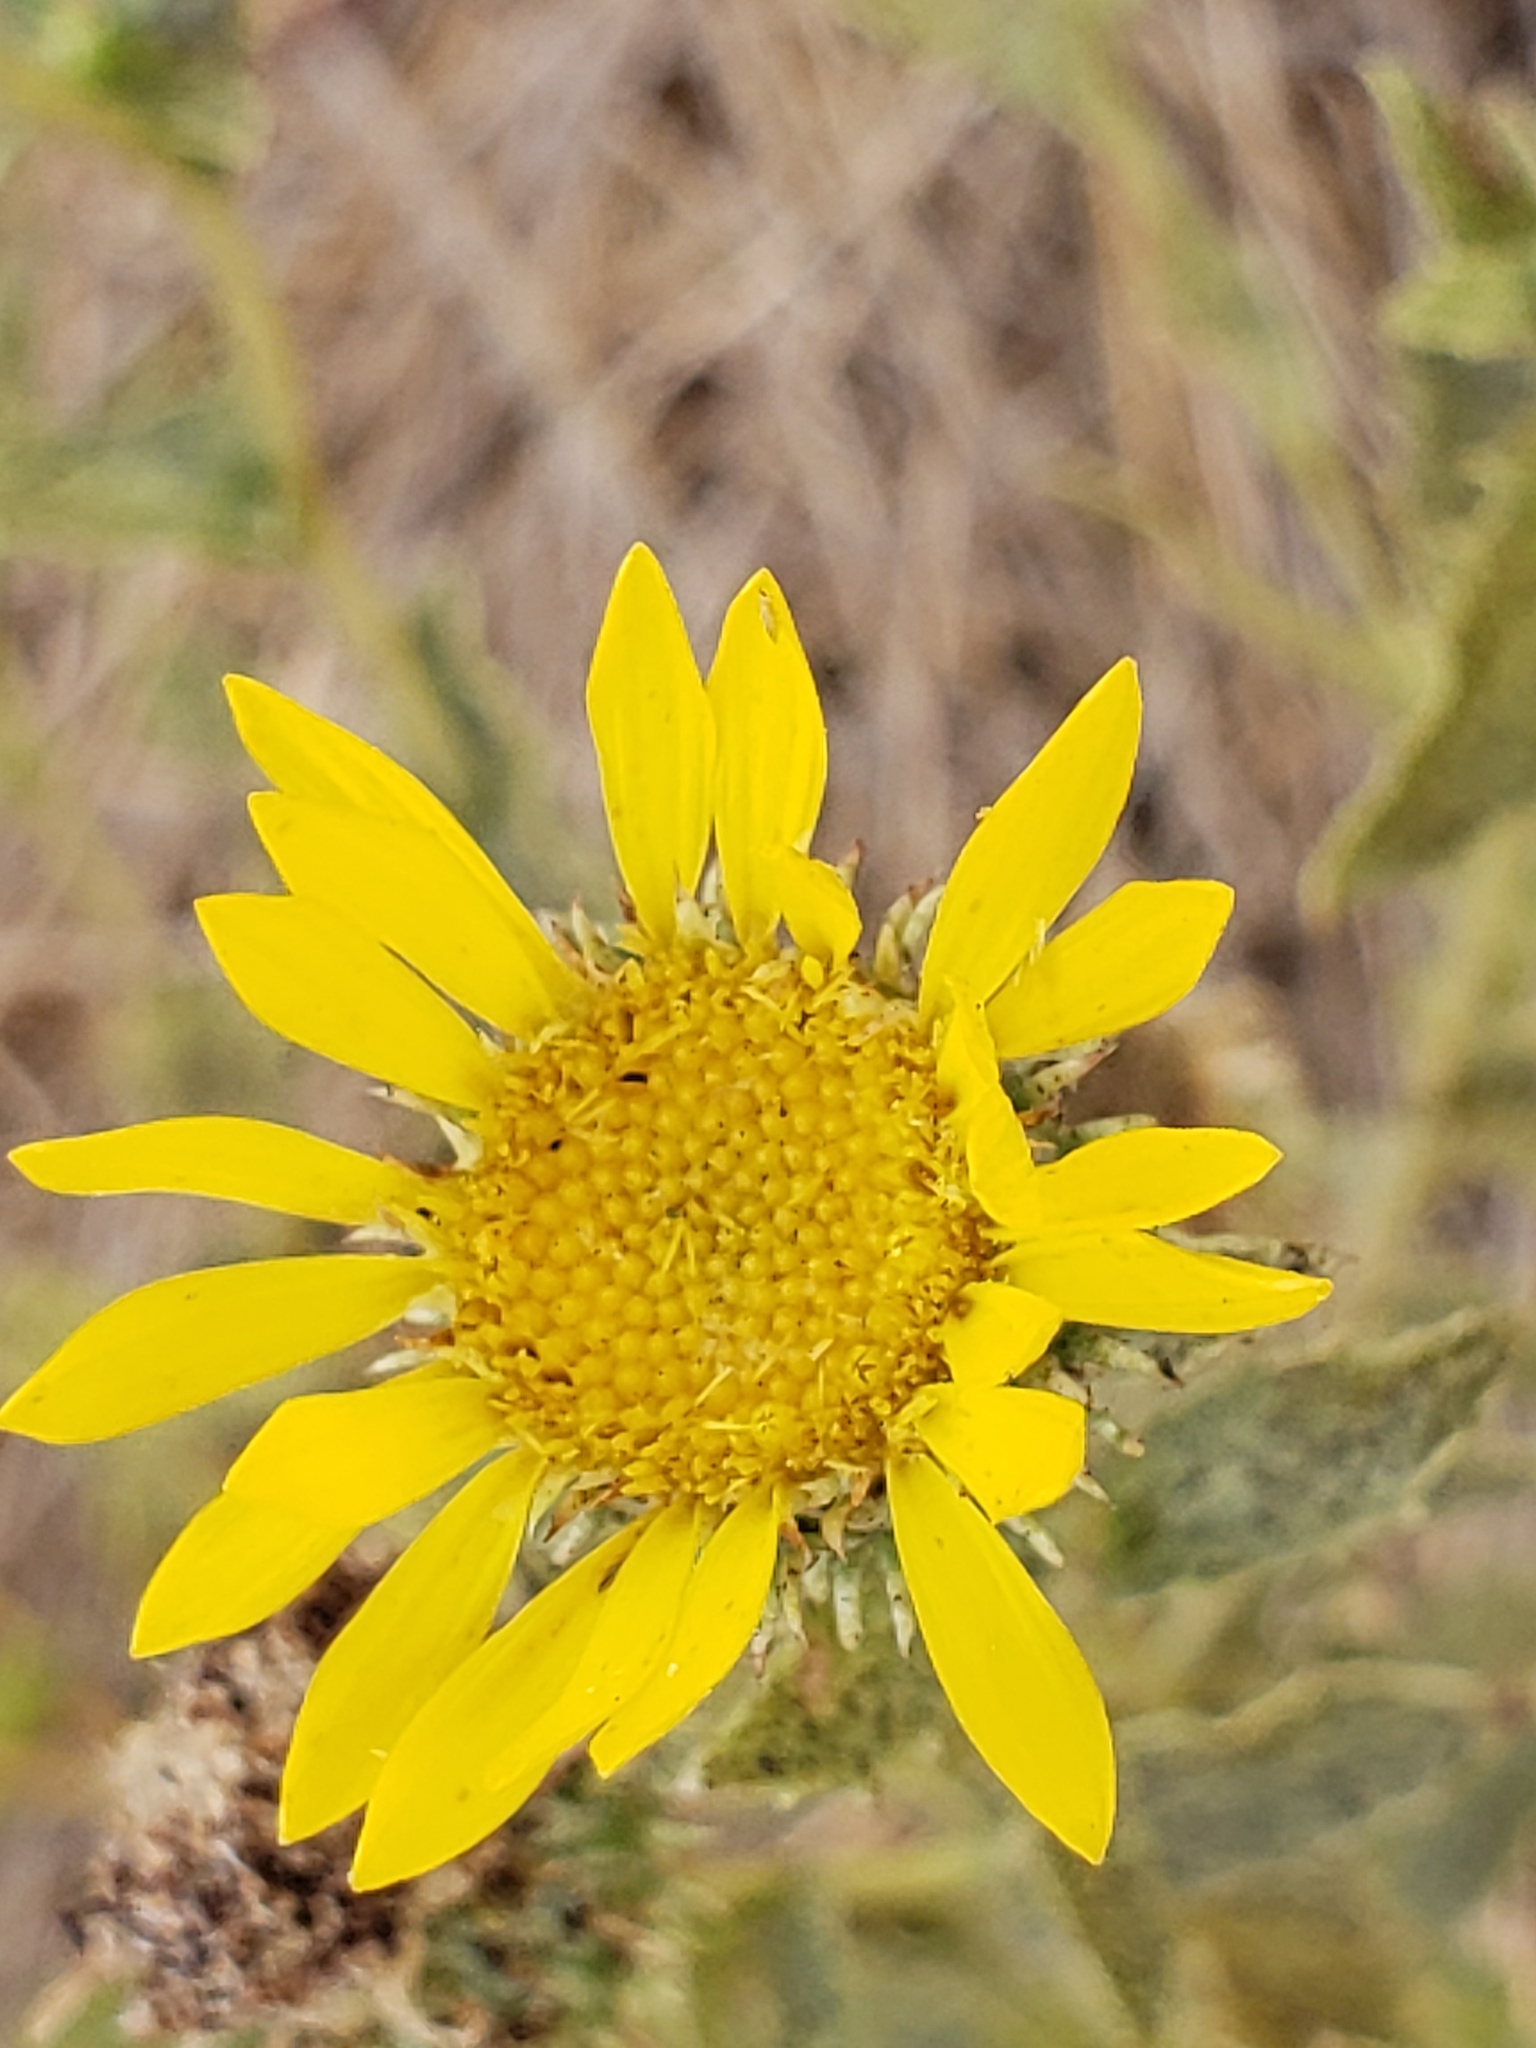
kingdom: Plantae
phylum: Tracheophyta
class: Magnoliopsida
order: Asterales
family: Asteraceae
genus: Grindelia
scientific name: Grindelia hirsutula
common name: Hairy gumweed
